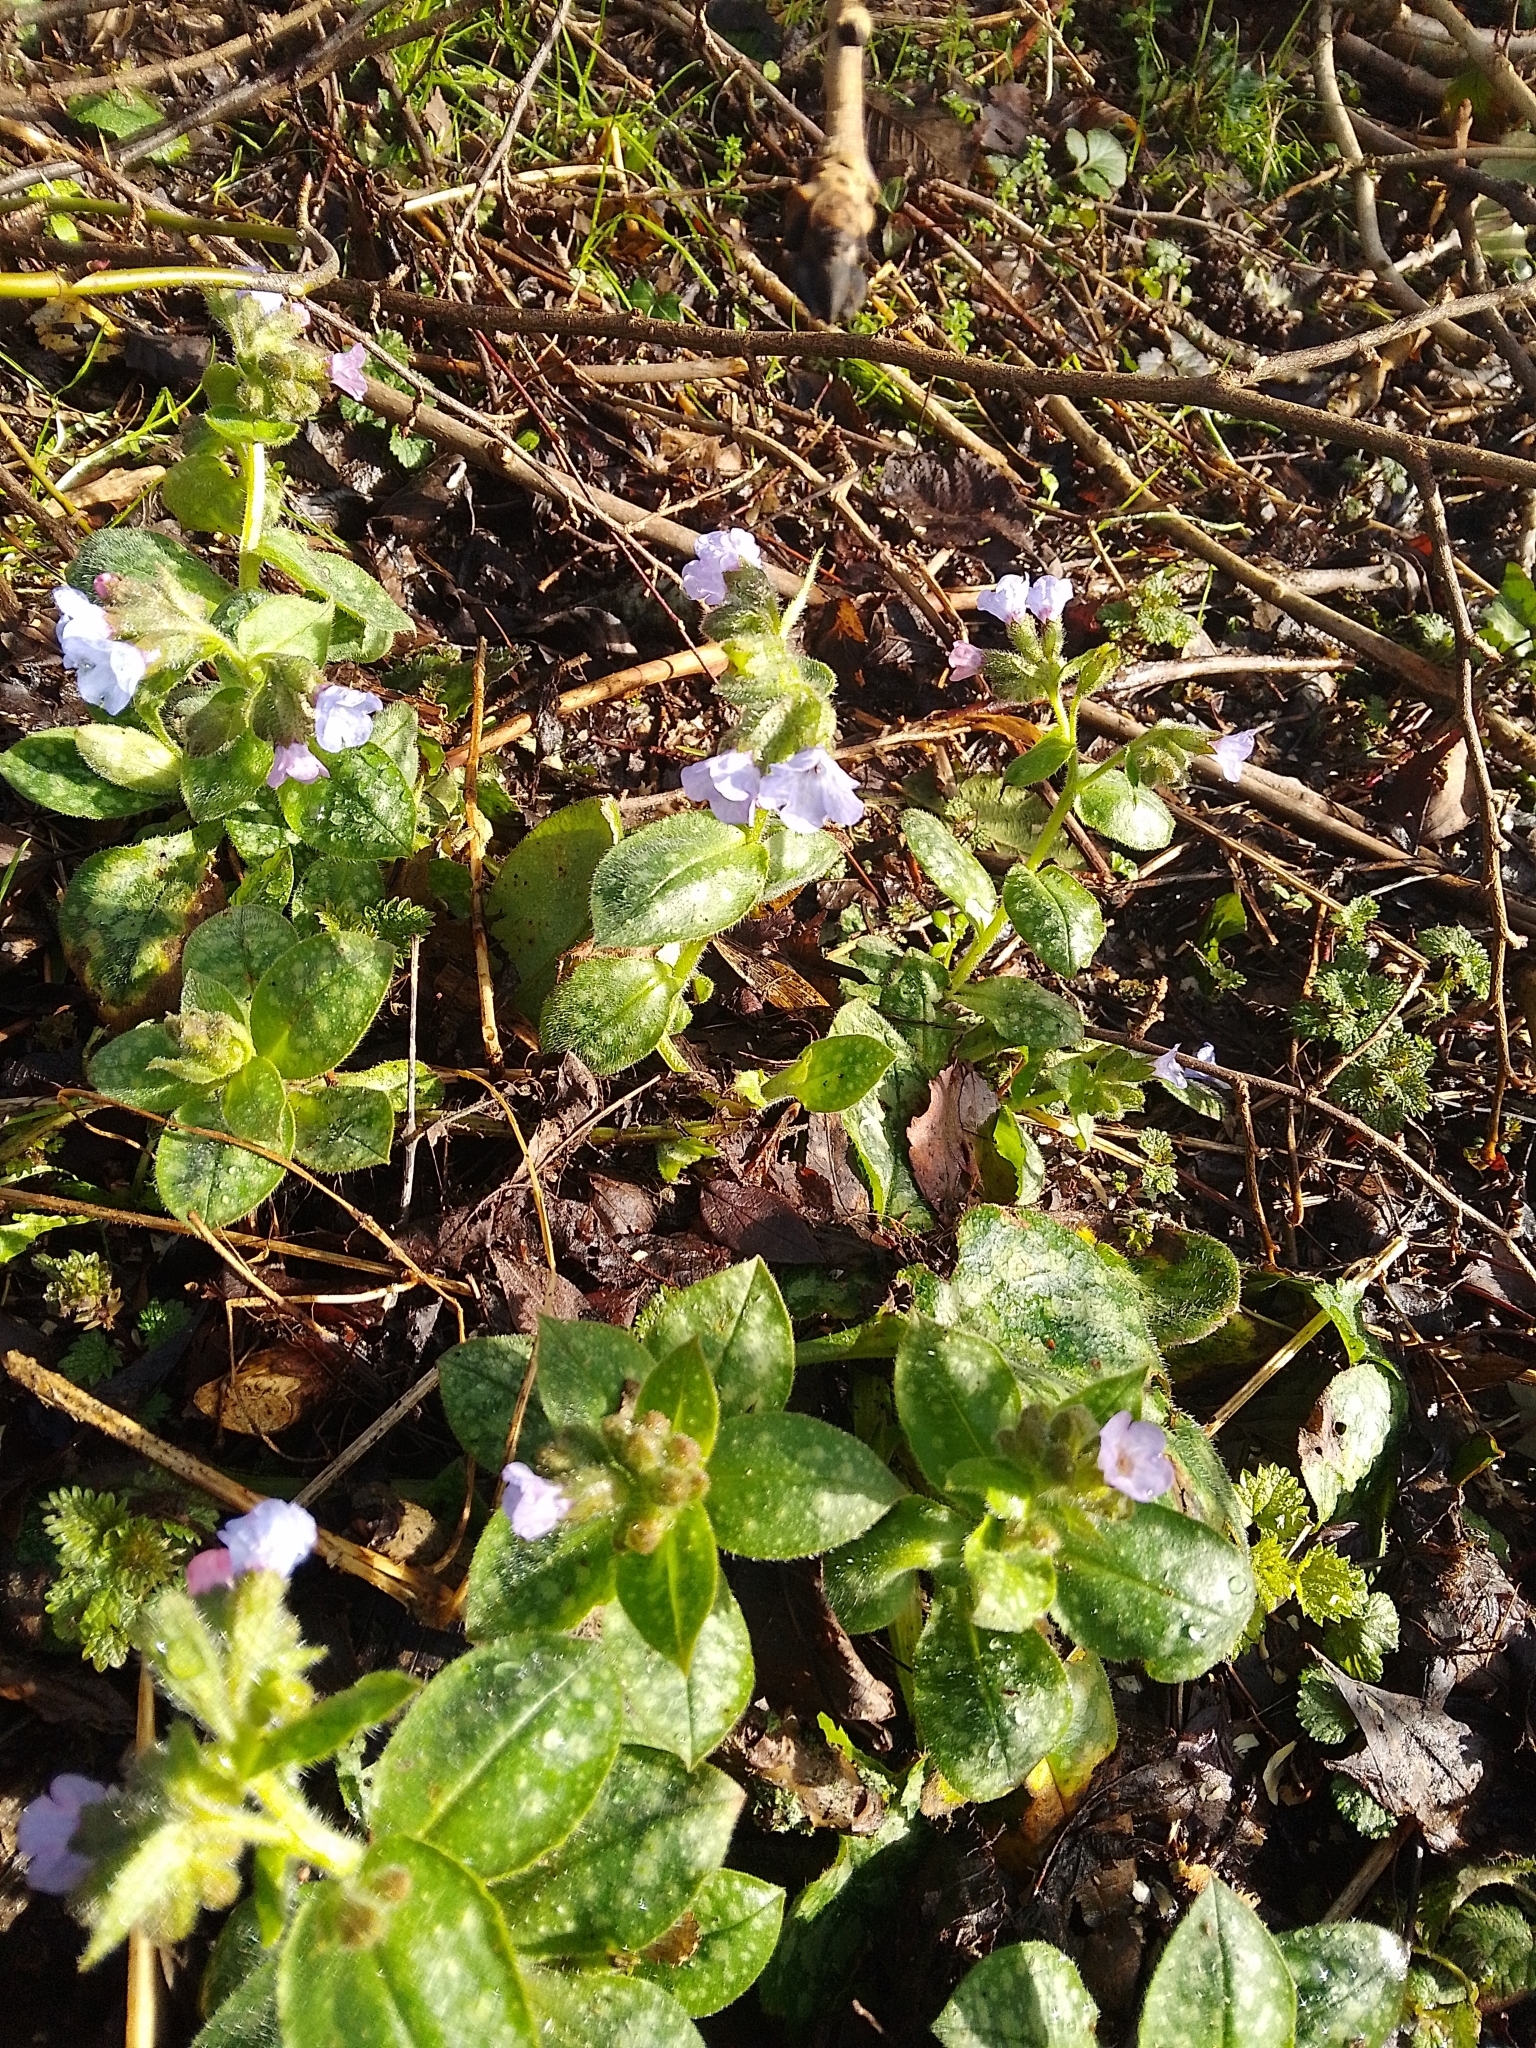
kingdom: Plantae
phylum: Tracheophyta
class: Magnoliopsida
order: Boraginales
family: Boraginaceae
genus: Pulmonaria
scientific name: Pulmonaria officinalis
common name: Lungwort
